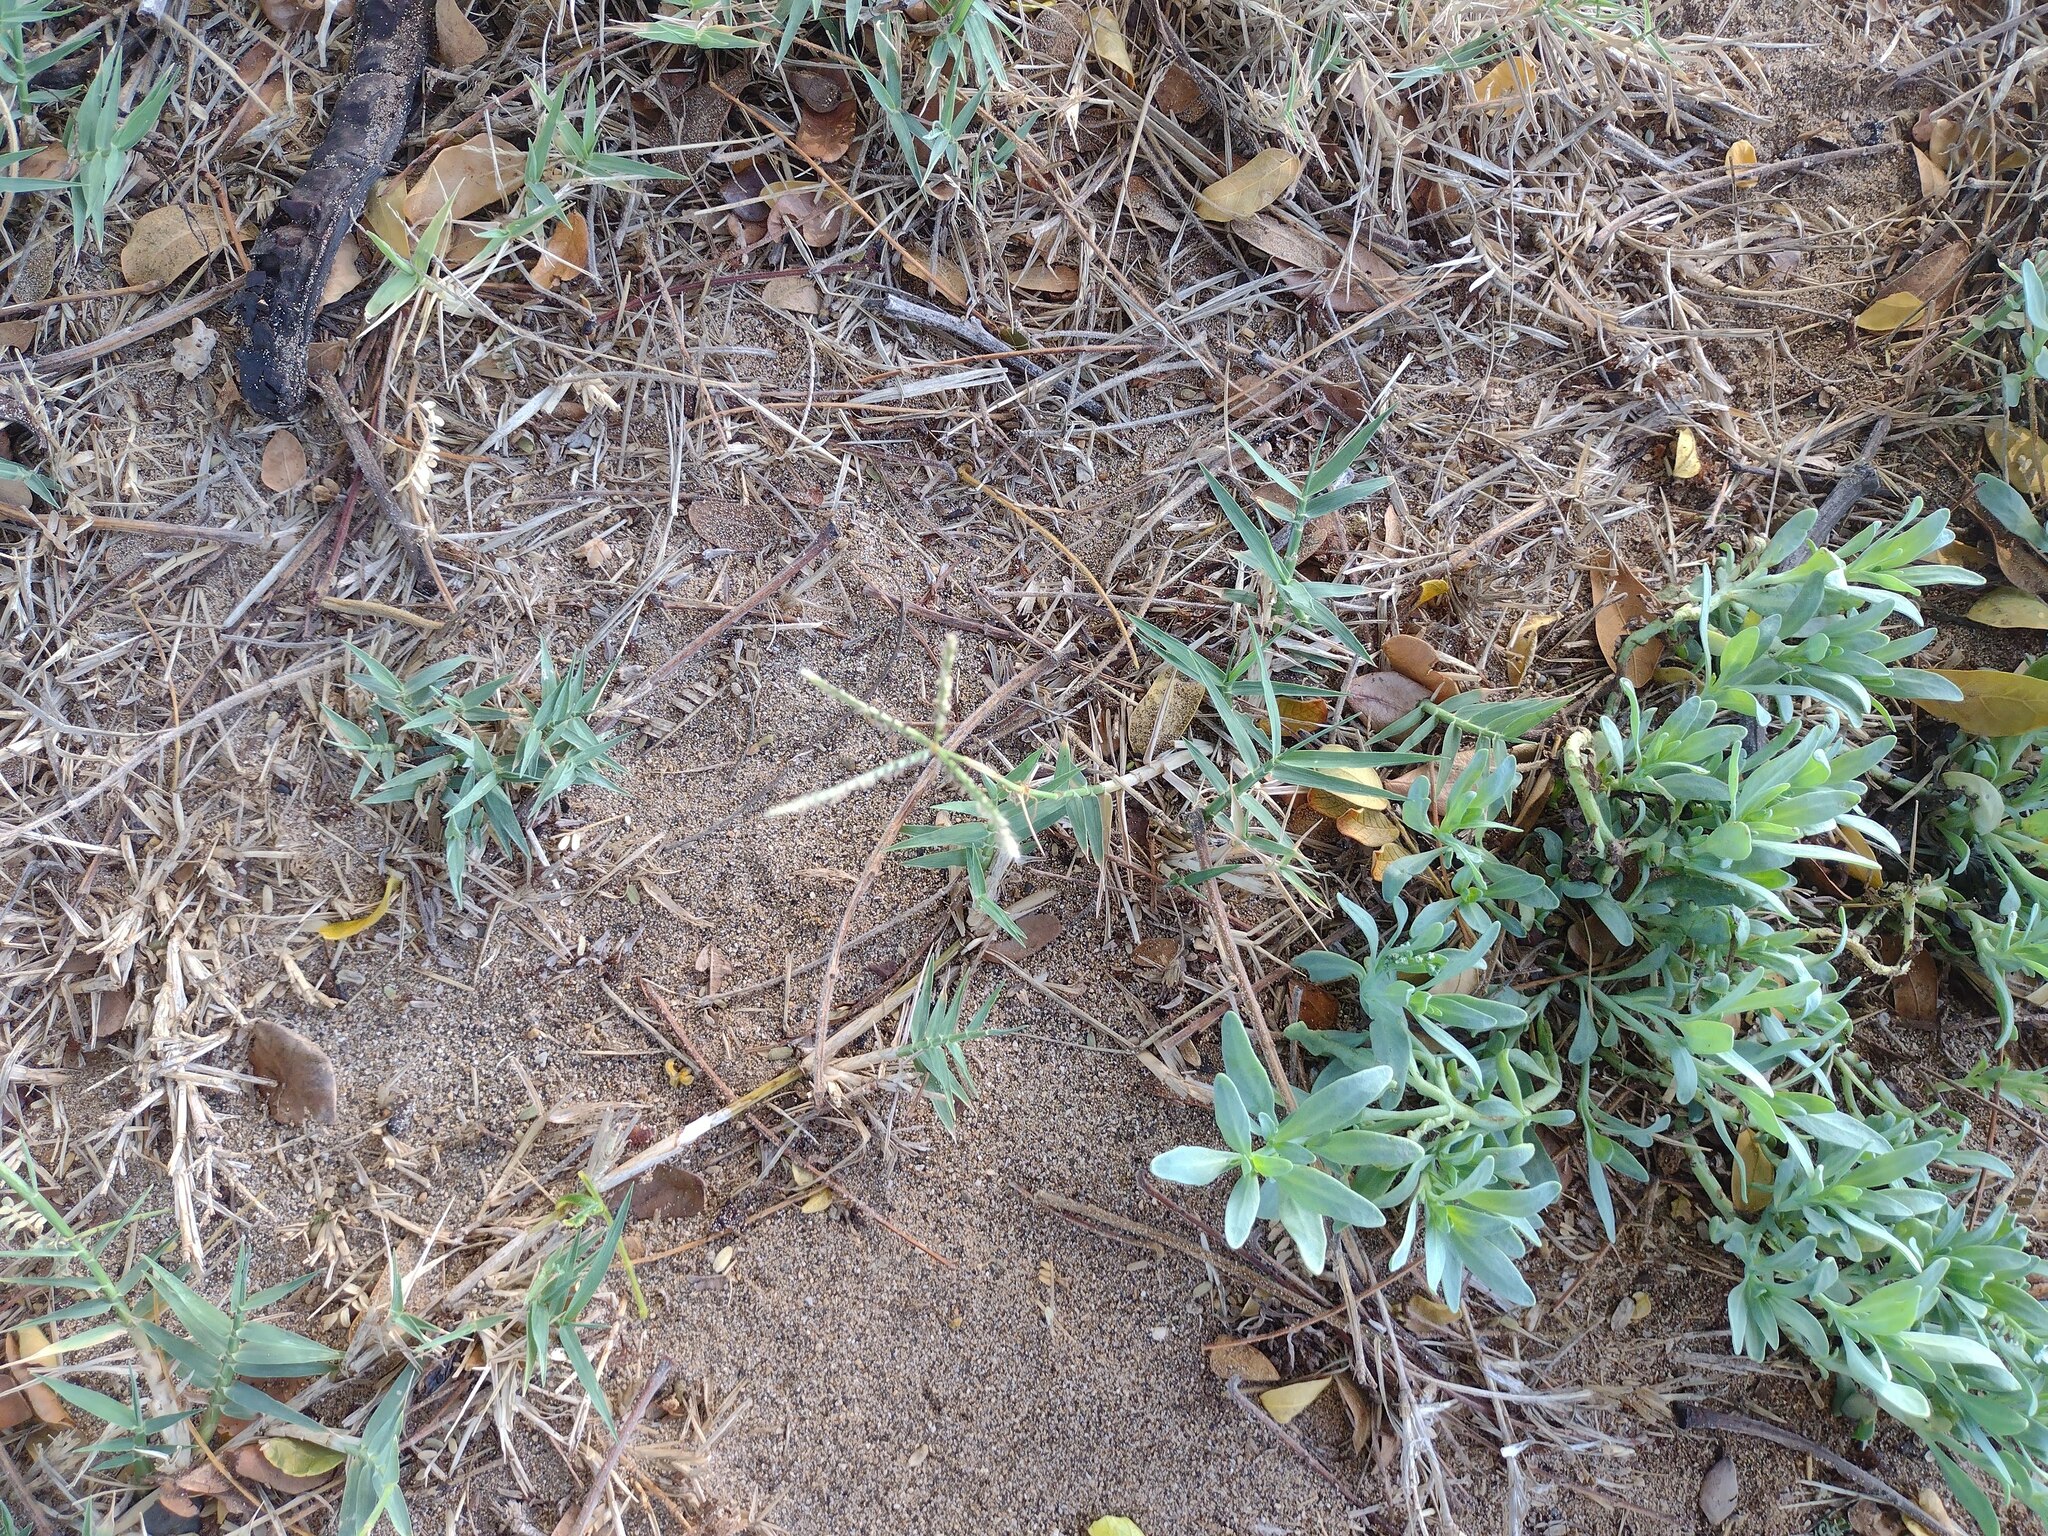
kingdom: Plantae
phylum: Tracheophyta
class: Liliopsida
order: Poales
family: Poaceae
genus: Cynodon
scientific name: Cynodon dactylon
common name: Bermuda grass
